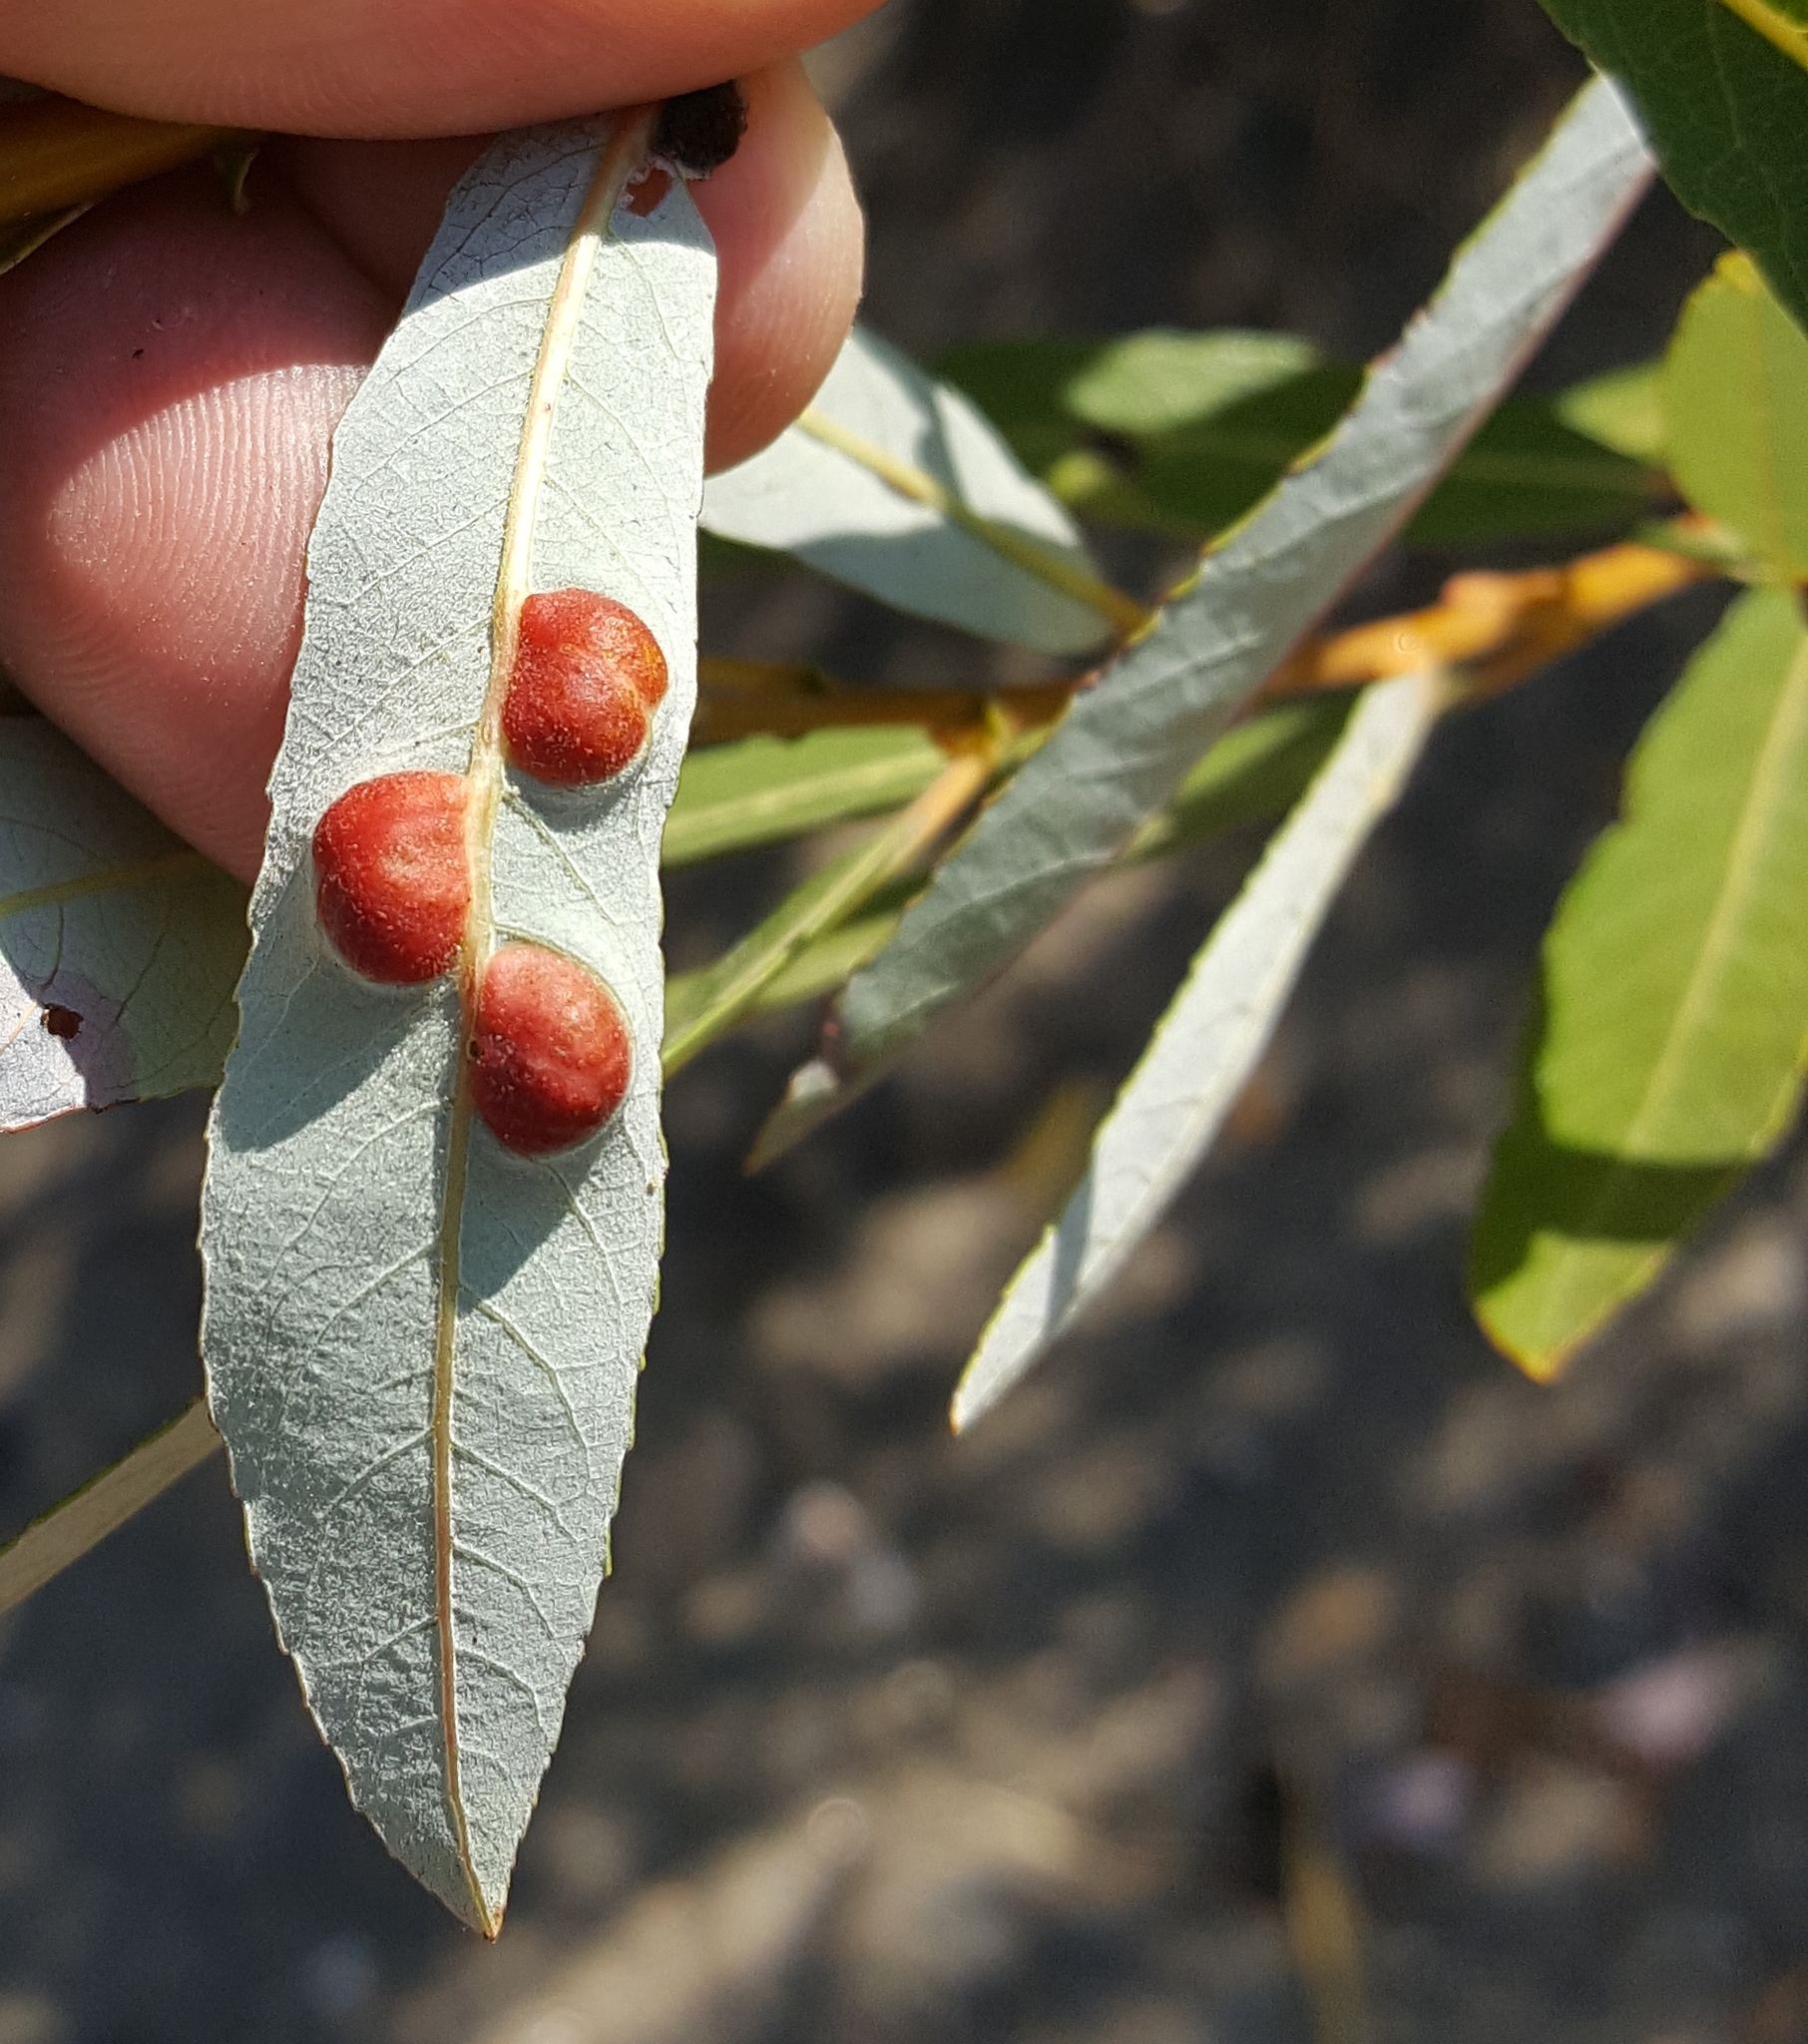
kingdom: Animalia
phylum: Arthropoda
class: Insecta
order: Hymenoptera
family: Tenthredinidae
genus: Euura
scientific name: Euura
